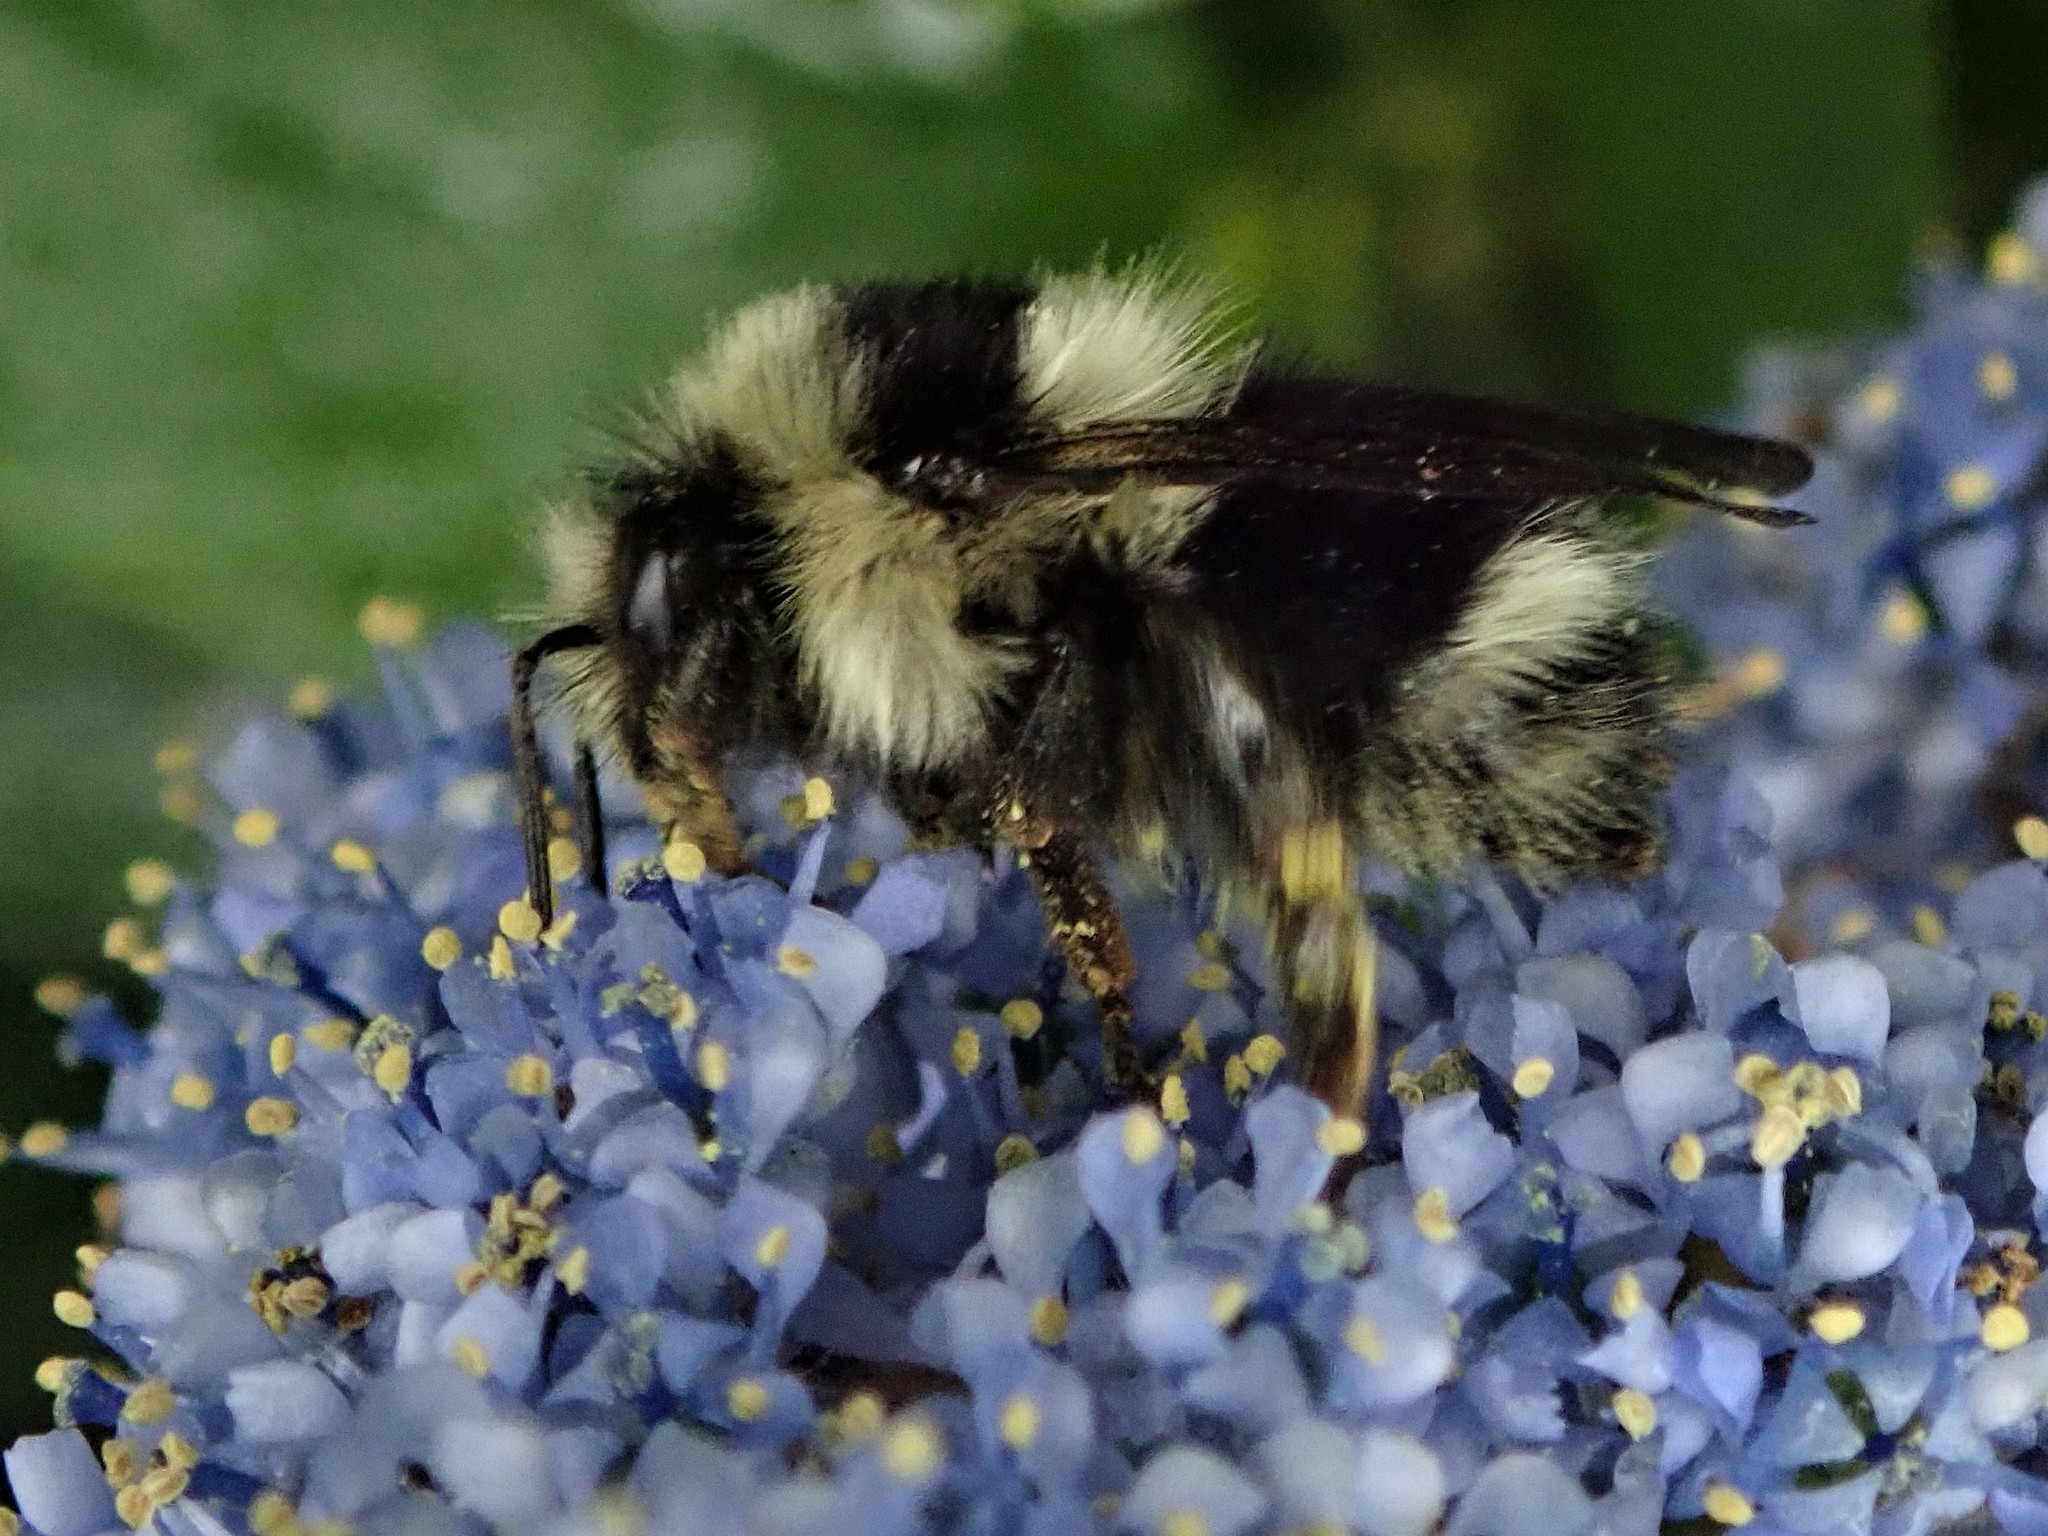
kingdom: Animalia
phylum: Arthropoda
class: Insecta
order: Hymenoptera
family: Apidae
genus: Bombus
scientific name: Bombus melanopygus
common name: Black tail bumble bee
